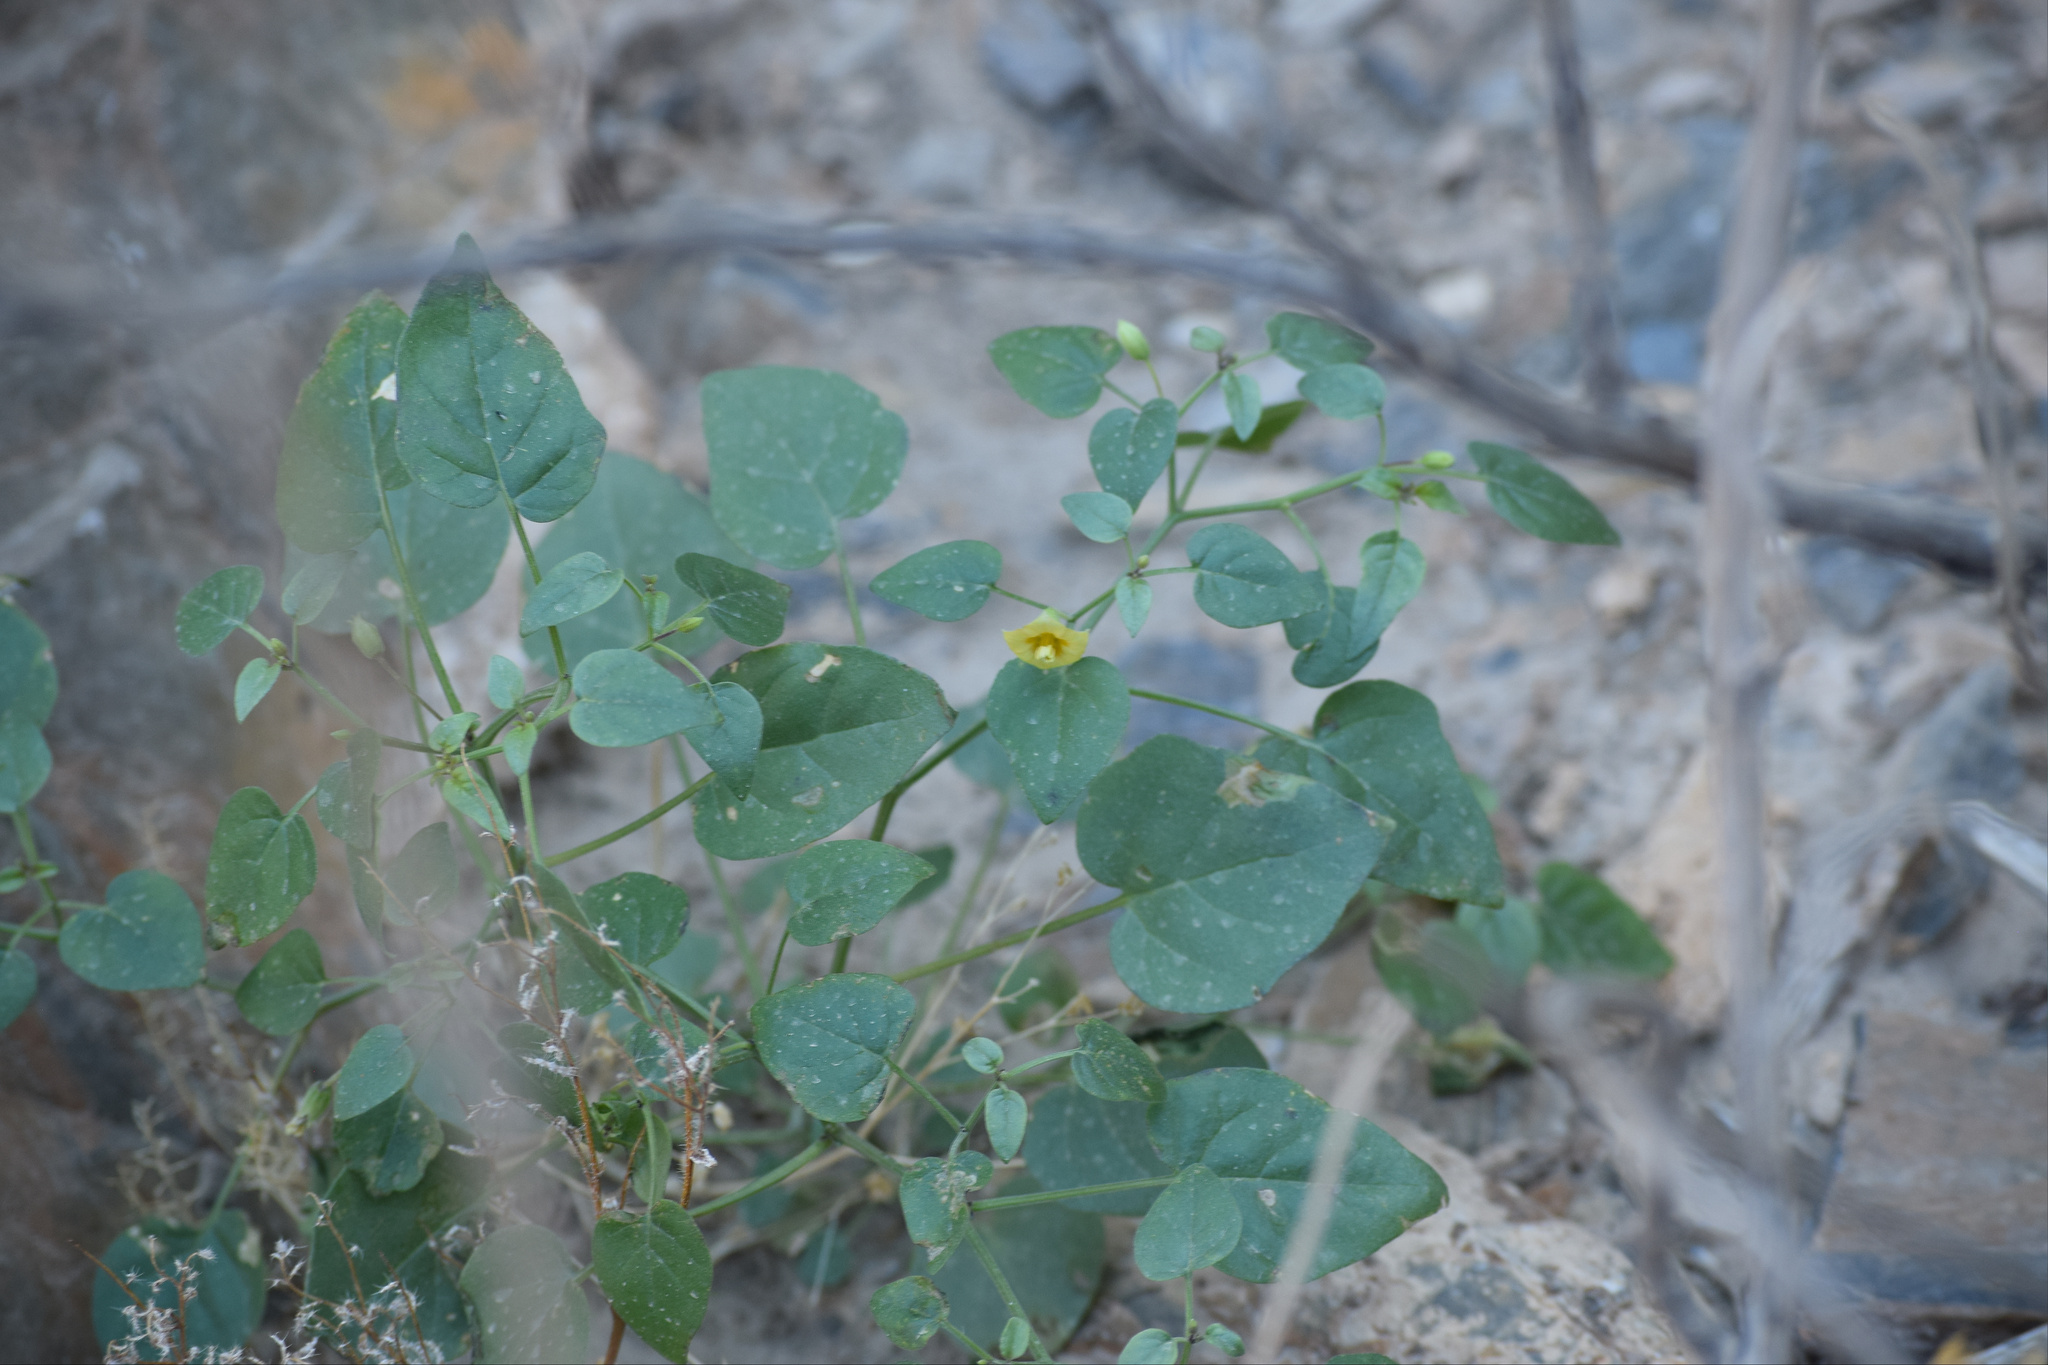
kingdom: Plantae
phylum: Tracheophyta
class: Magnoliopsida
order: Solanales
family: Solanaceae
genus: Physalis
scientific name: Physalis crassifolia
